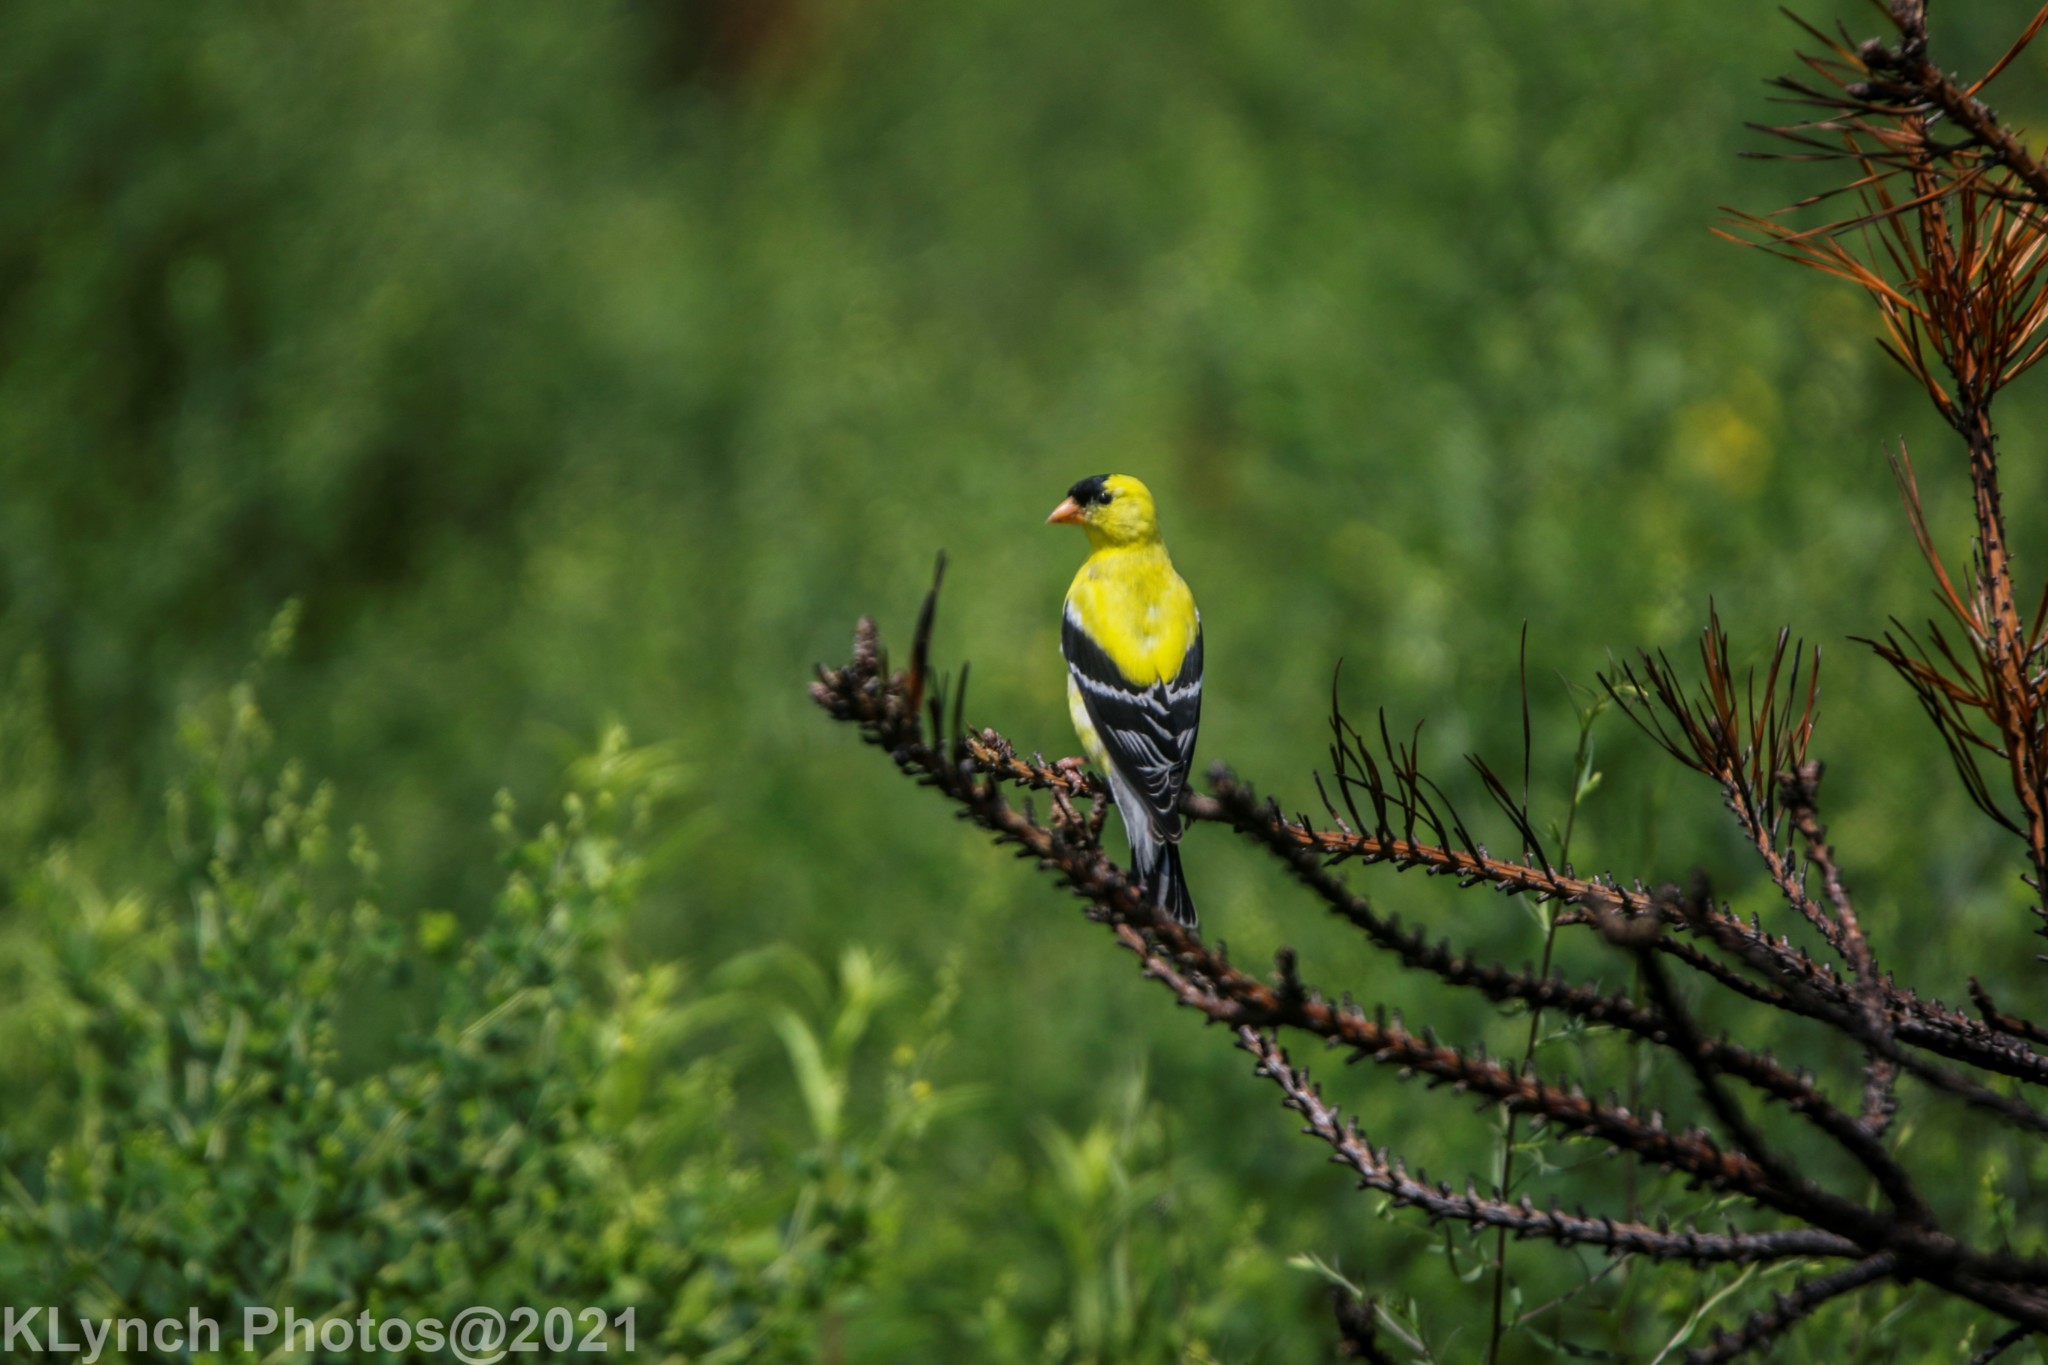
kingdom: Animalia
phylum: Chordata
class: Aves
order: Passeriformes
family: Fringillidae
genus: Spinus
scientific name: Spinus tristis
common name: American goldfinch
